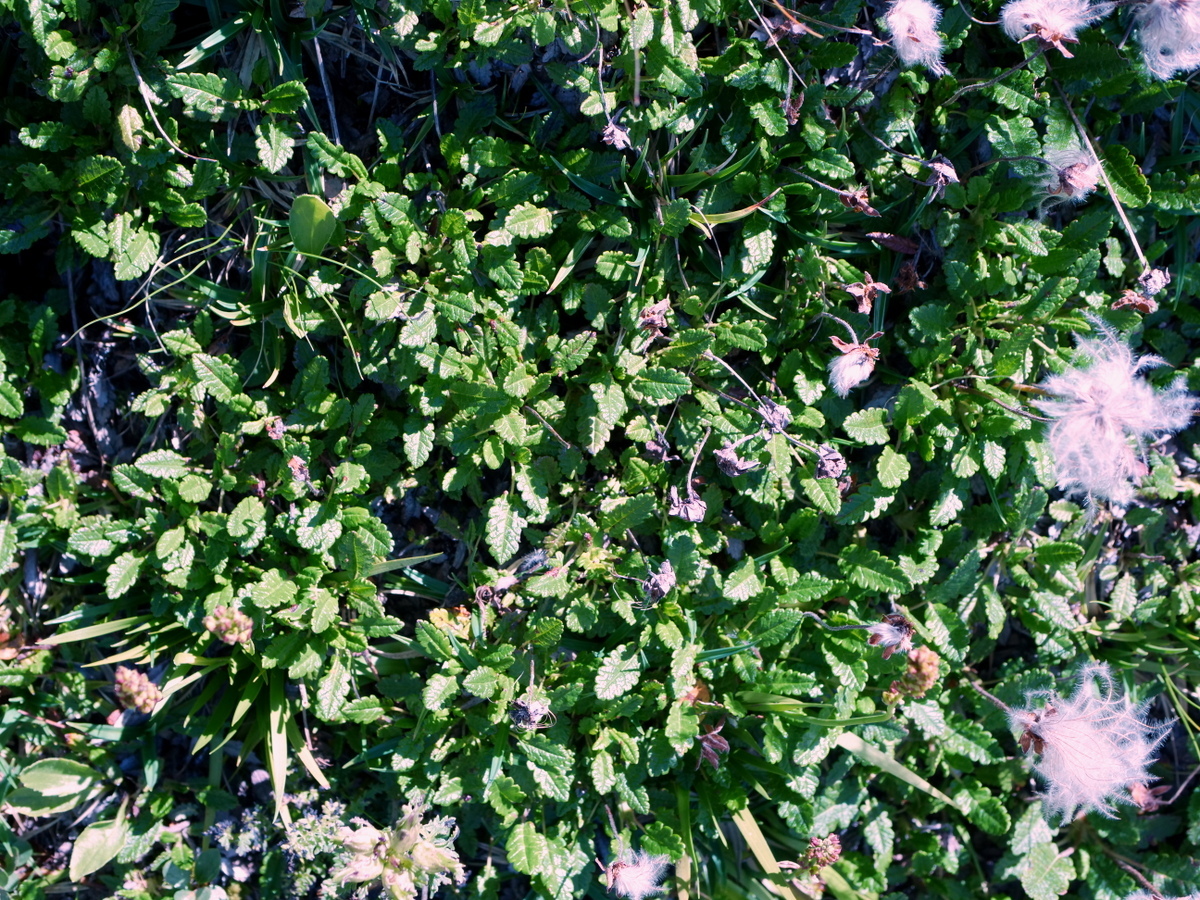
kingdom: Plantae
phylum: Tracheophyta
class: Magnoliopsida
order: Rosales
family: Rosaceae
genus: Dryas
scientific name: Dryas octopetala
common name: Eight-petal mountain-avens
